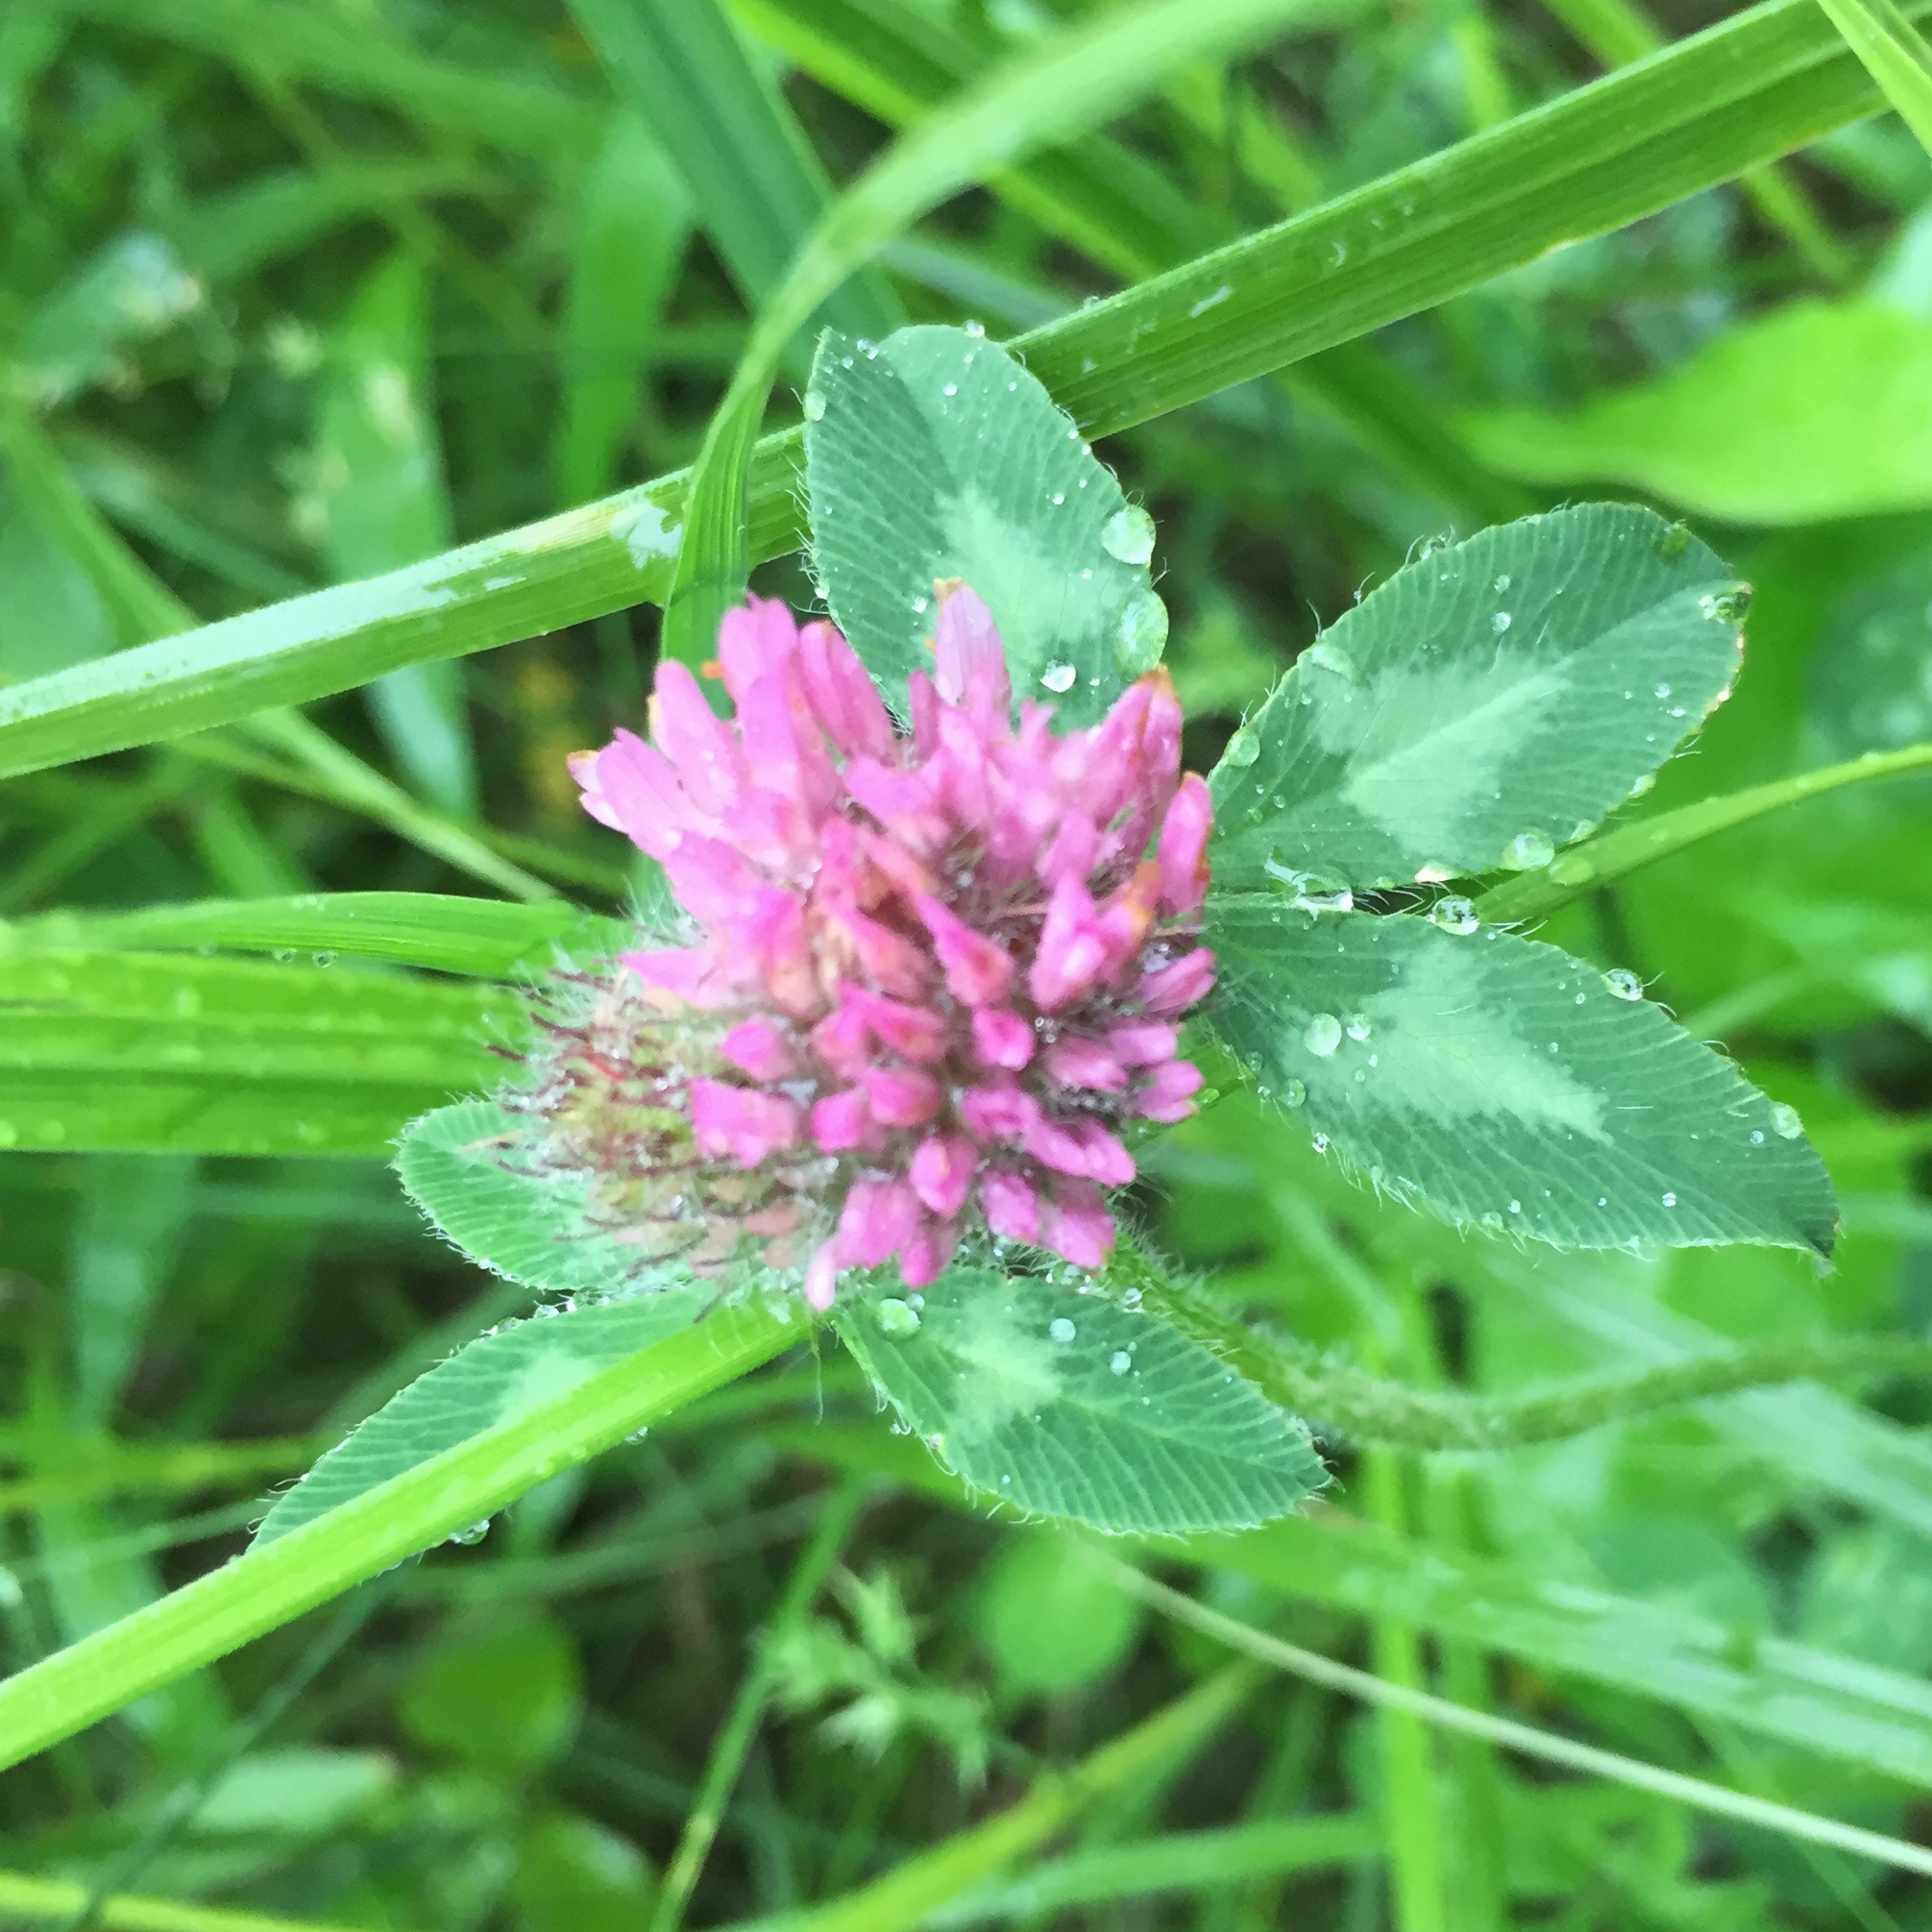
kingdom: Plantae
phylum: Tracheophyta
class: Magnoliopsida
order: Fabales
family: Fabaceae
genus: Trifolium
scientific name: Trifolium pratense
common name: Red clover
